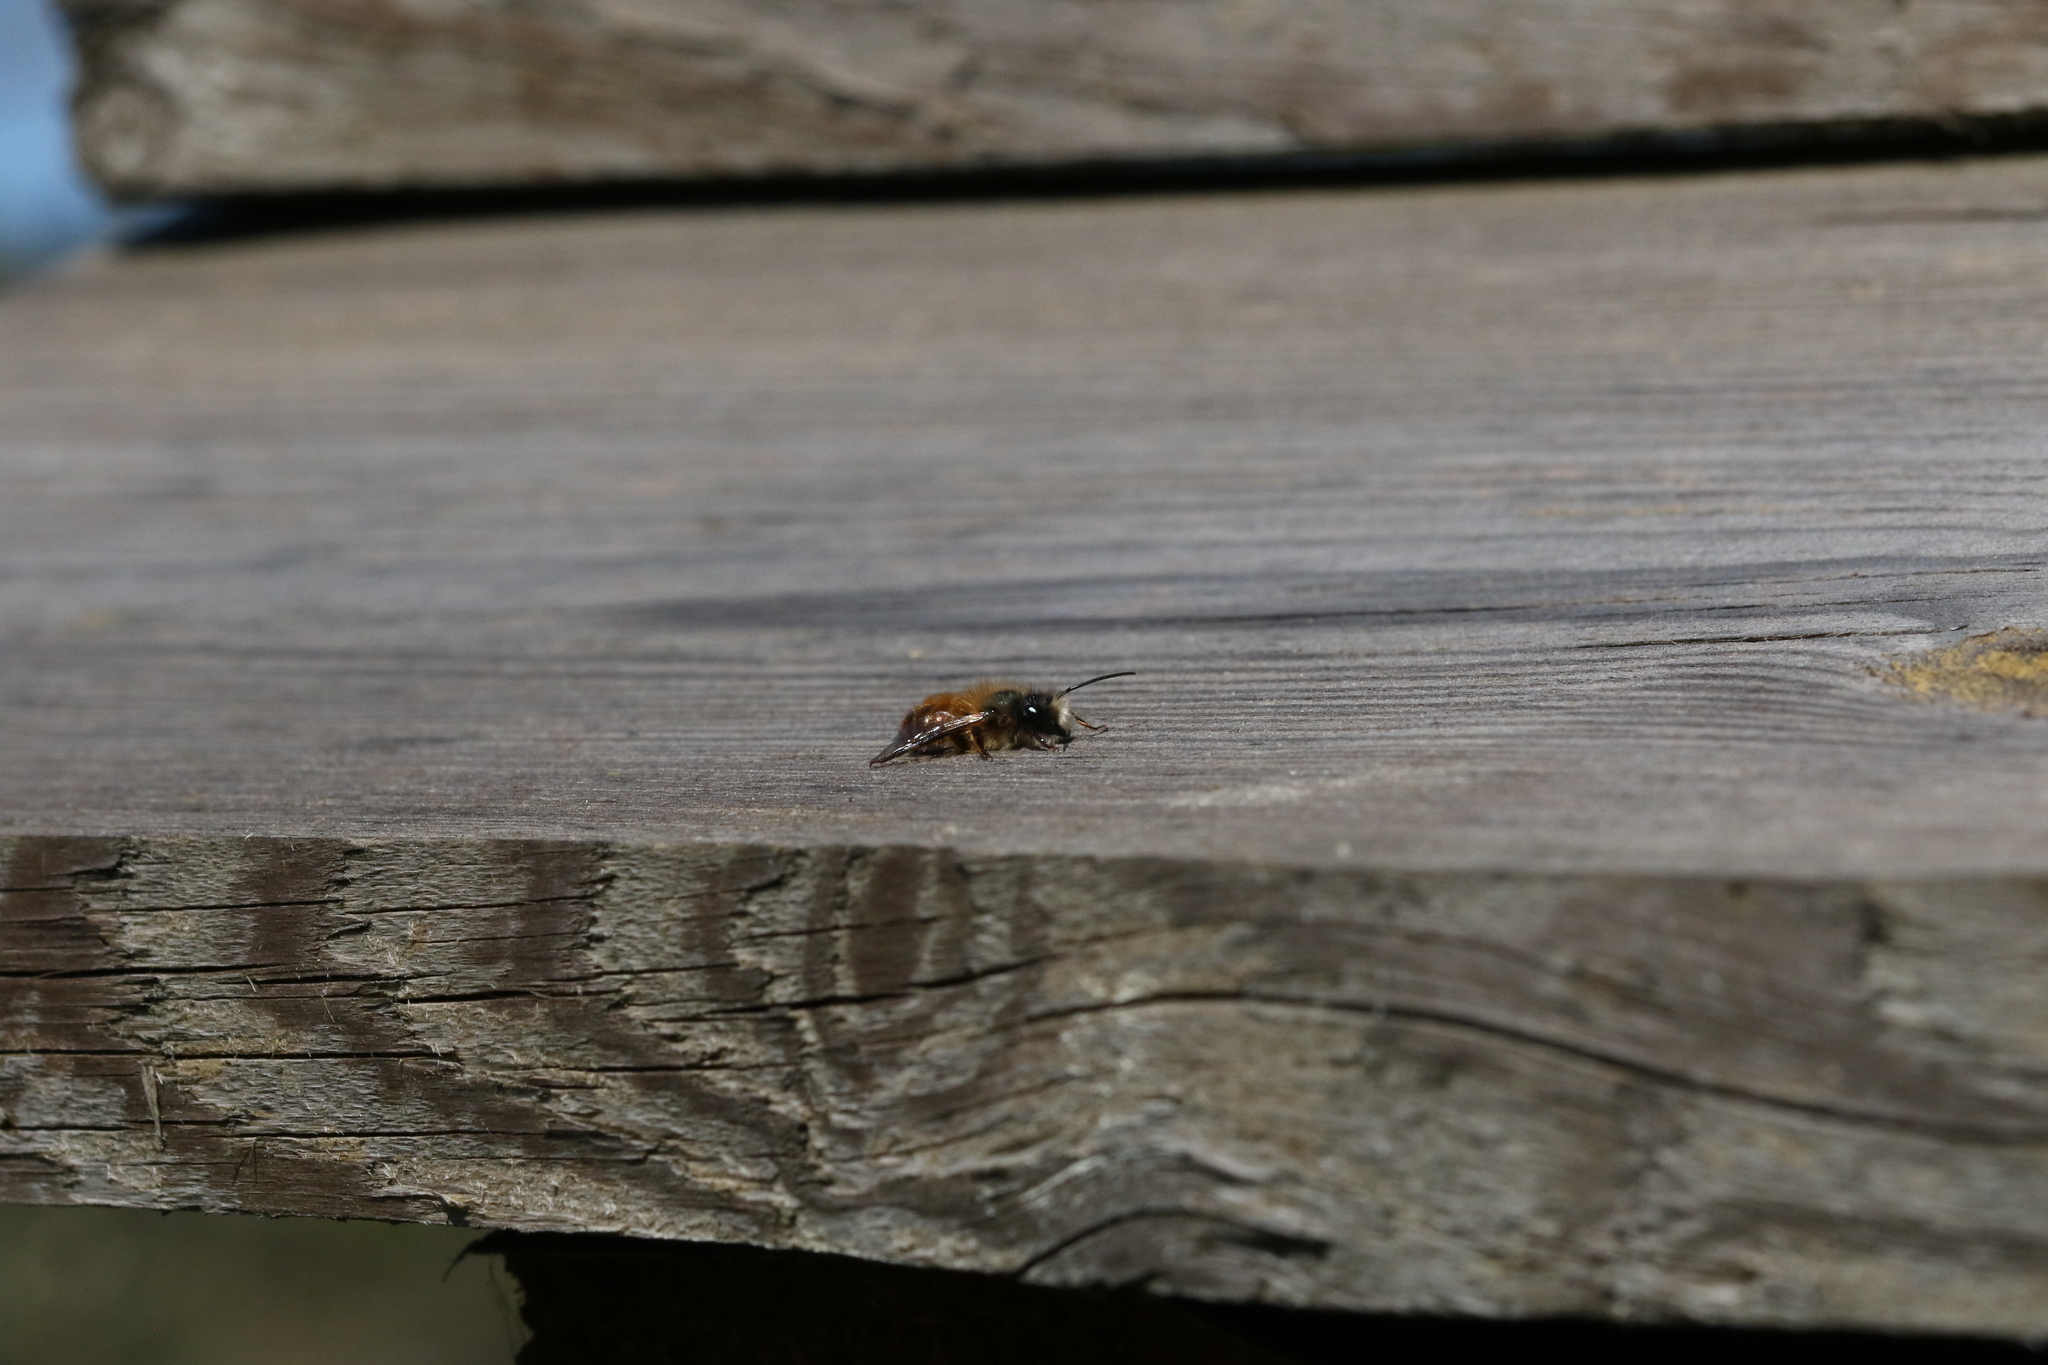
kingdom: Animalia
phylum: Arthropoda
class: Insecta
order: Hymenoptera
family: Megachilidae
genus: Osmia
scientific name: Osmia bicornis
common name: Red mason bee
